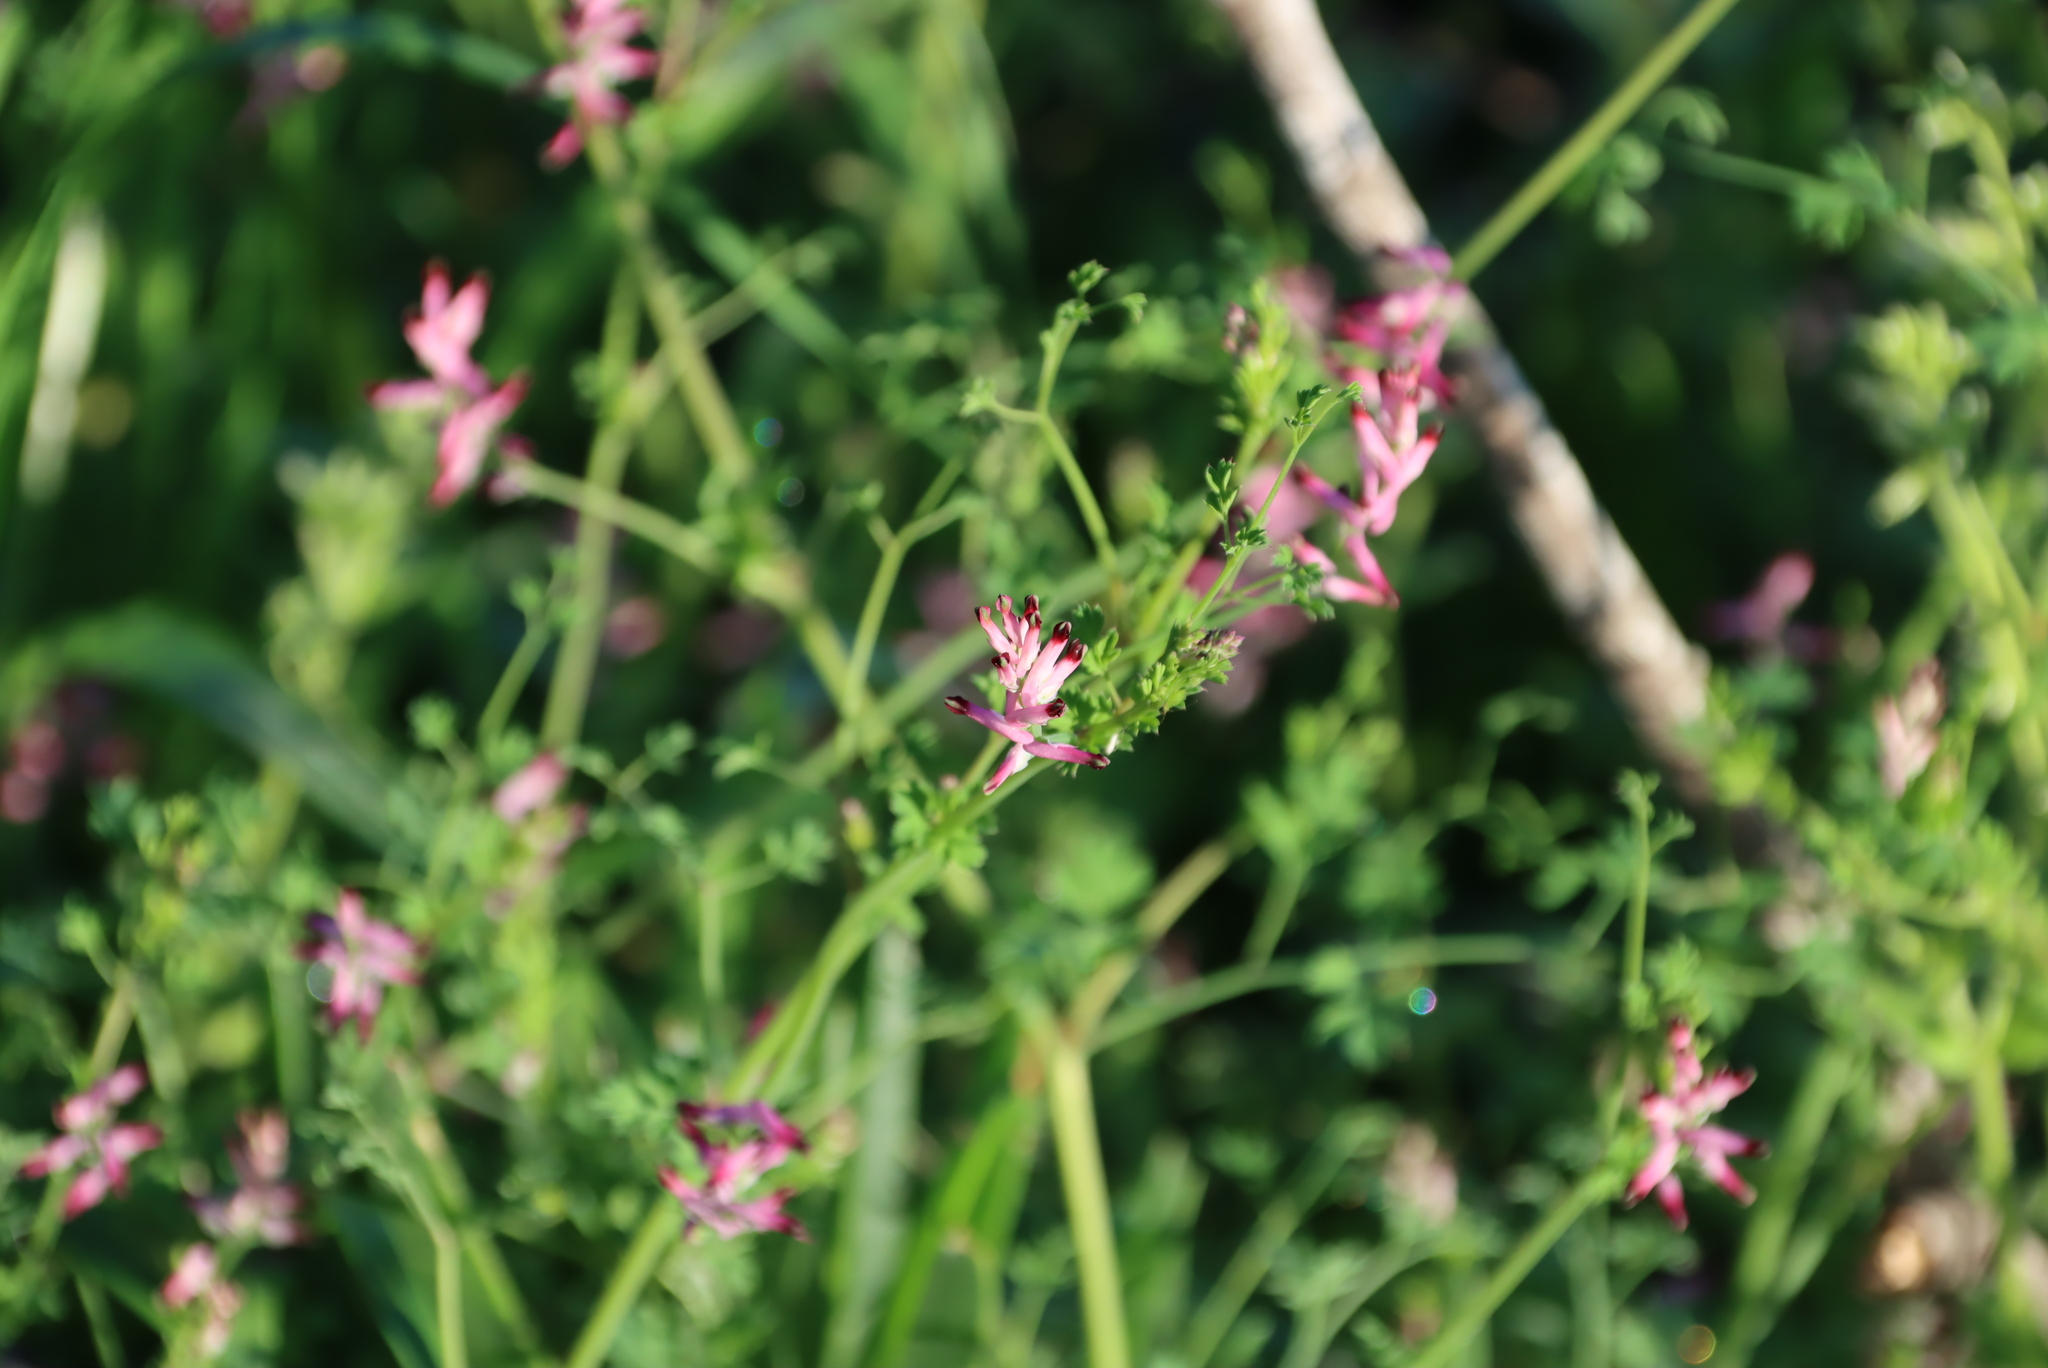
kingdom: Plantae
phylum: Tracheophyta
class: Magnoliopsida
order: Ranunculales
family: Papaveraceae
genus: Fumaria
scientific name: Fumaria muralis
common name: Common ramping-fumitory
